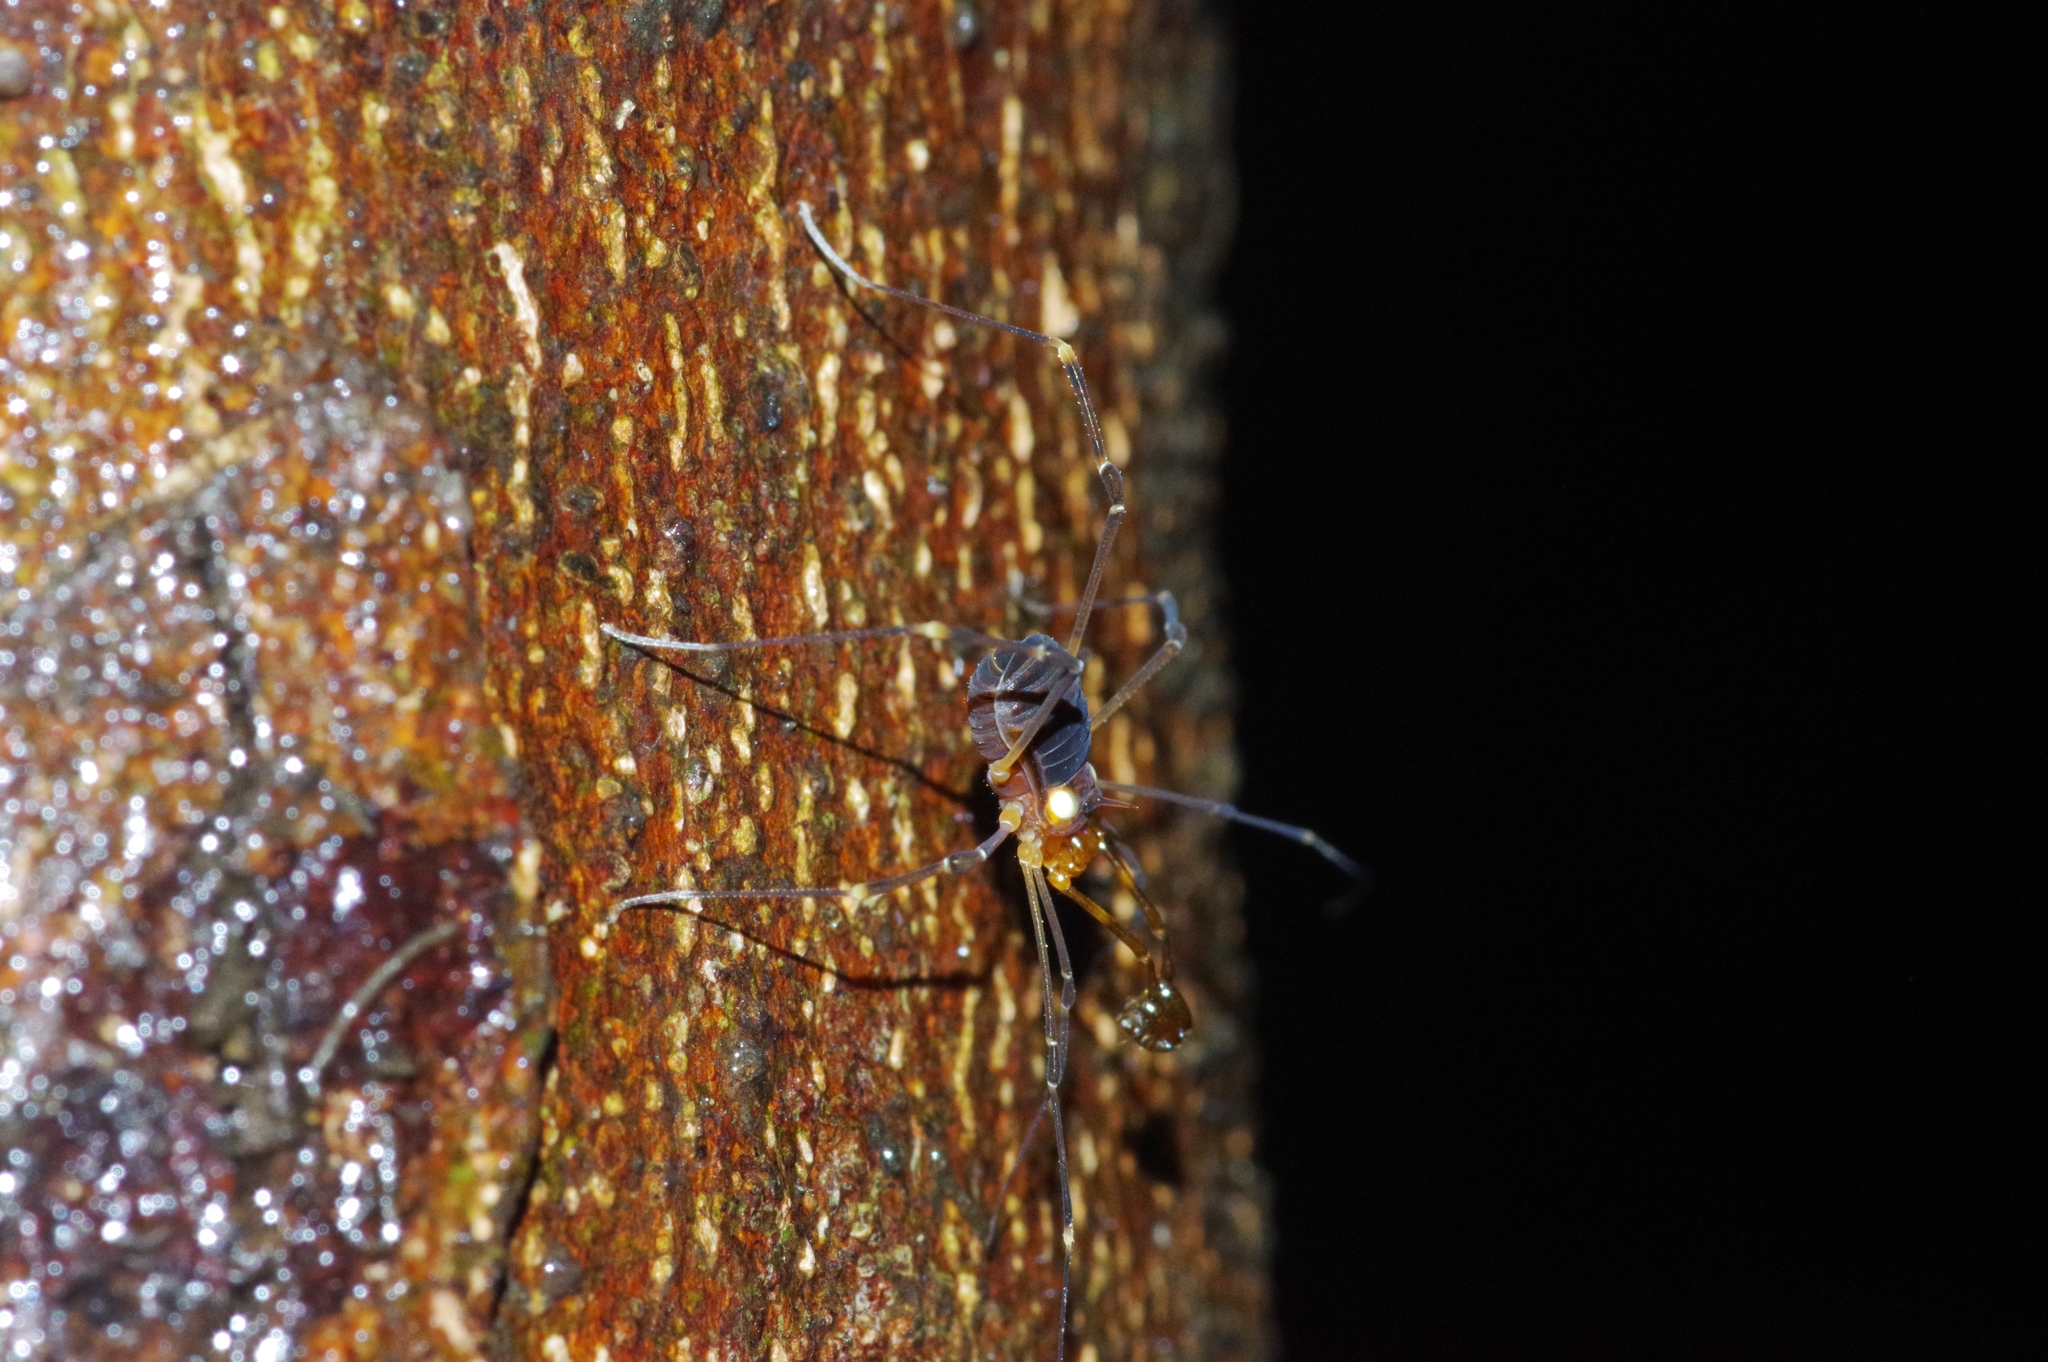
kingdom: Animalia
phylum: Arthropoda
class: Arachnida
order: Opiliones
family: Epedanidae
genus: Kilungius
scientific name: Kilungius insulanus
